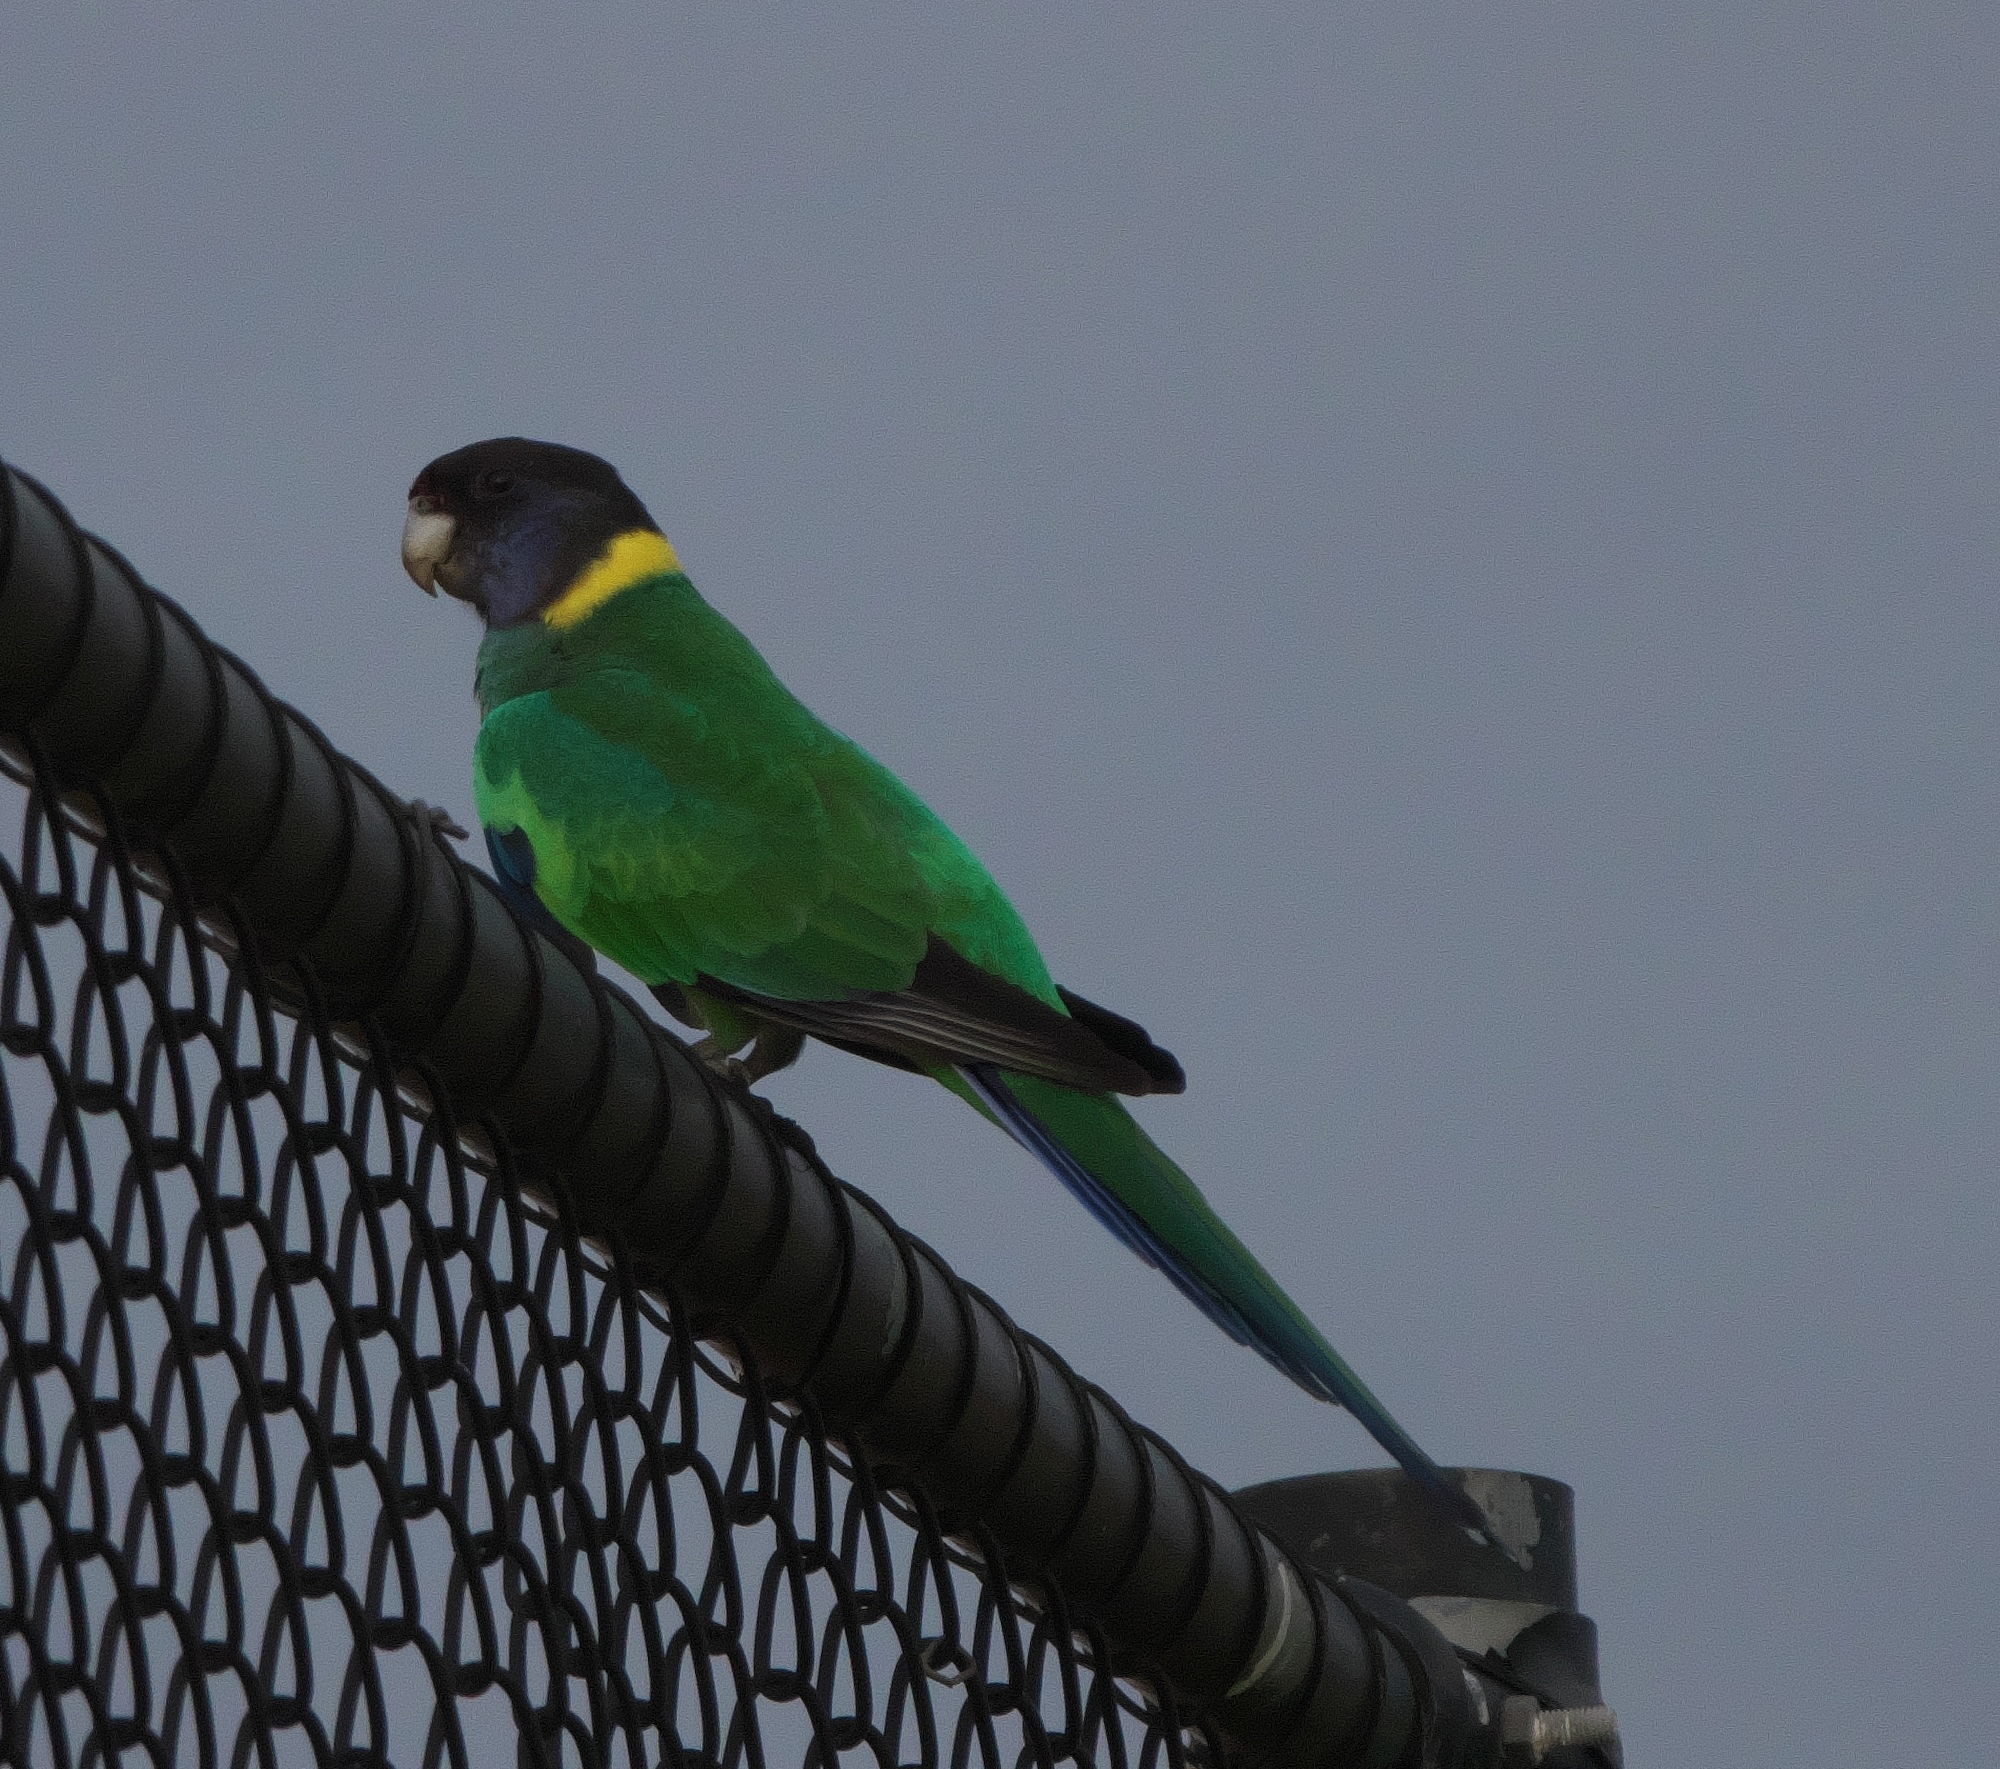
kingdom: Animalia
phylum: Chordata
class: Aves
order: Psittaciformes
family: Psittacidae
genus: Barnardius
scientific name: Barnardius zonarius
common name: Australian ringneck
